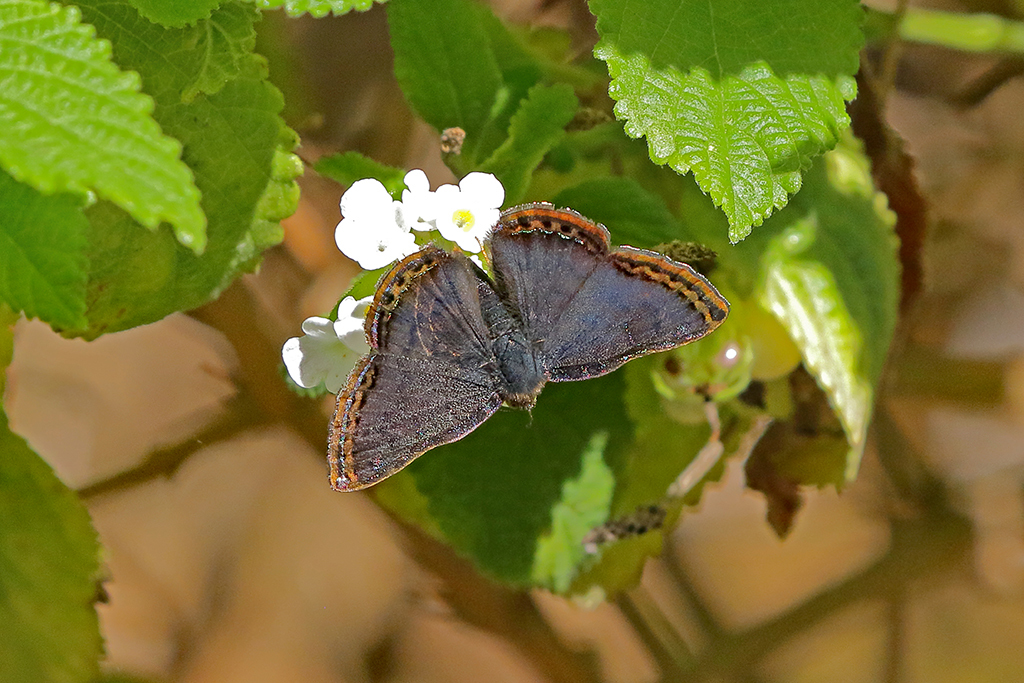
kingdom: Animalia
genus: Caria
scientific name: Caria ino
